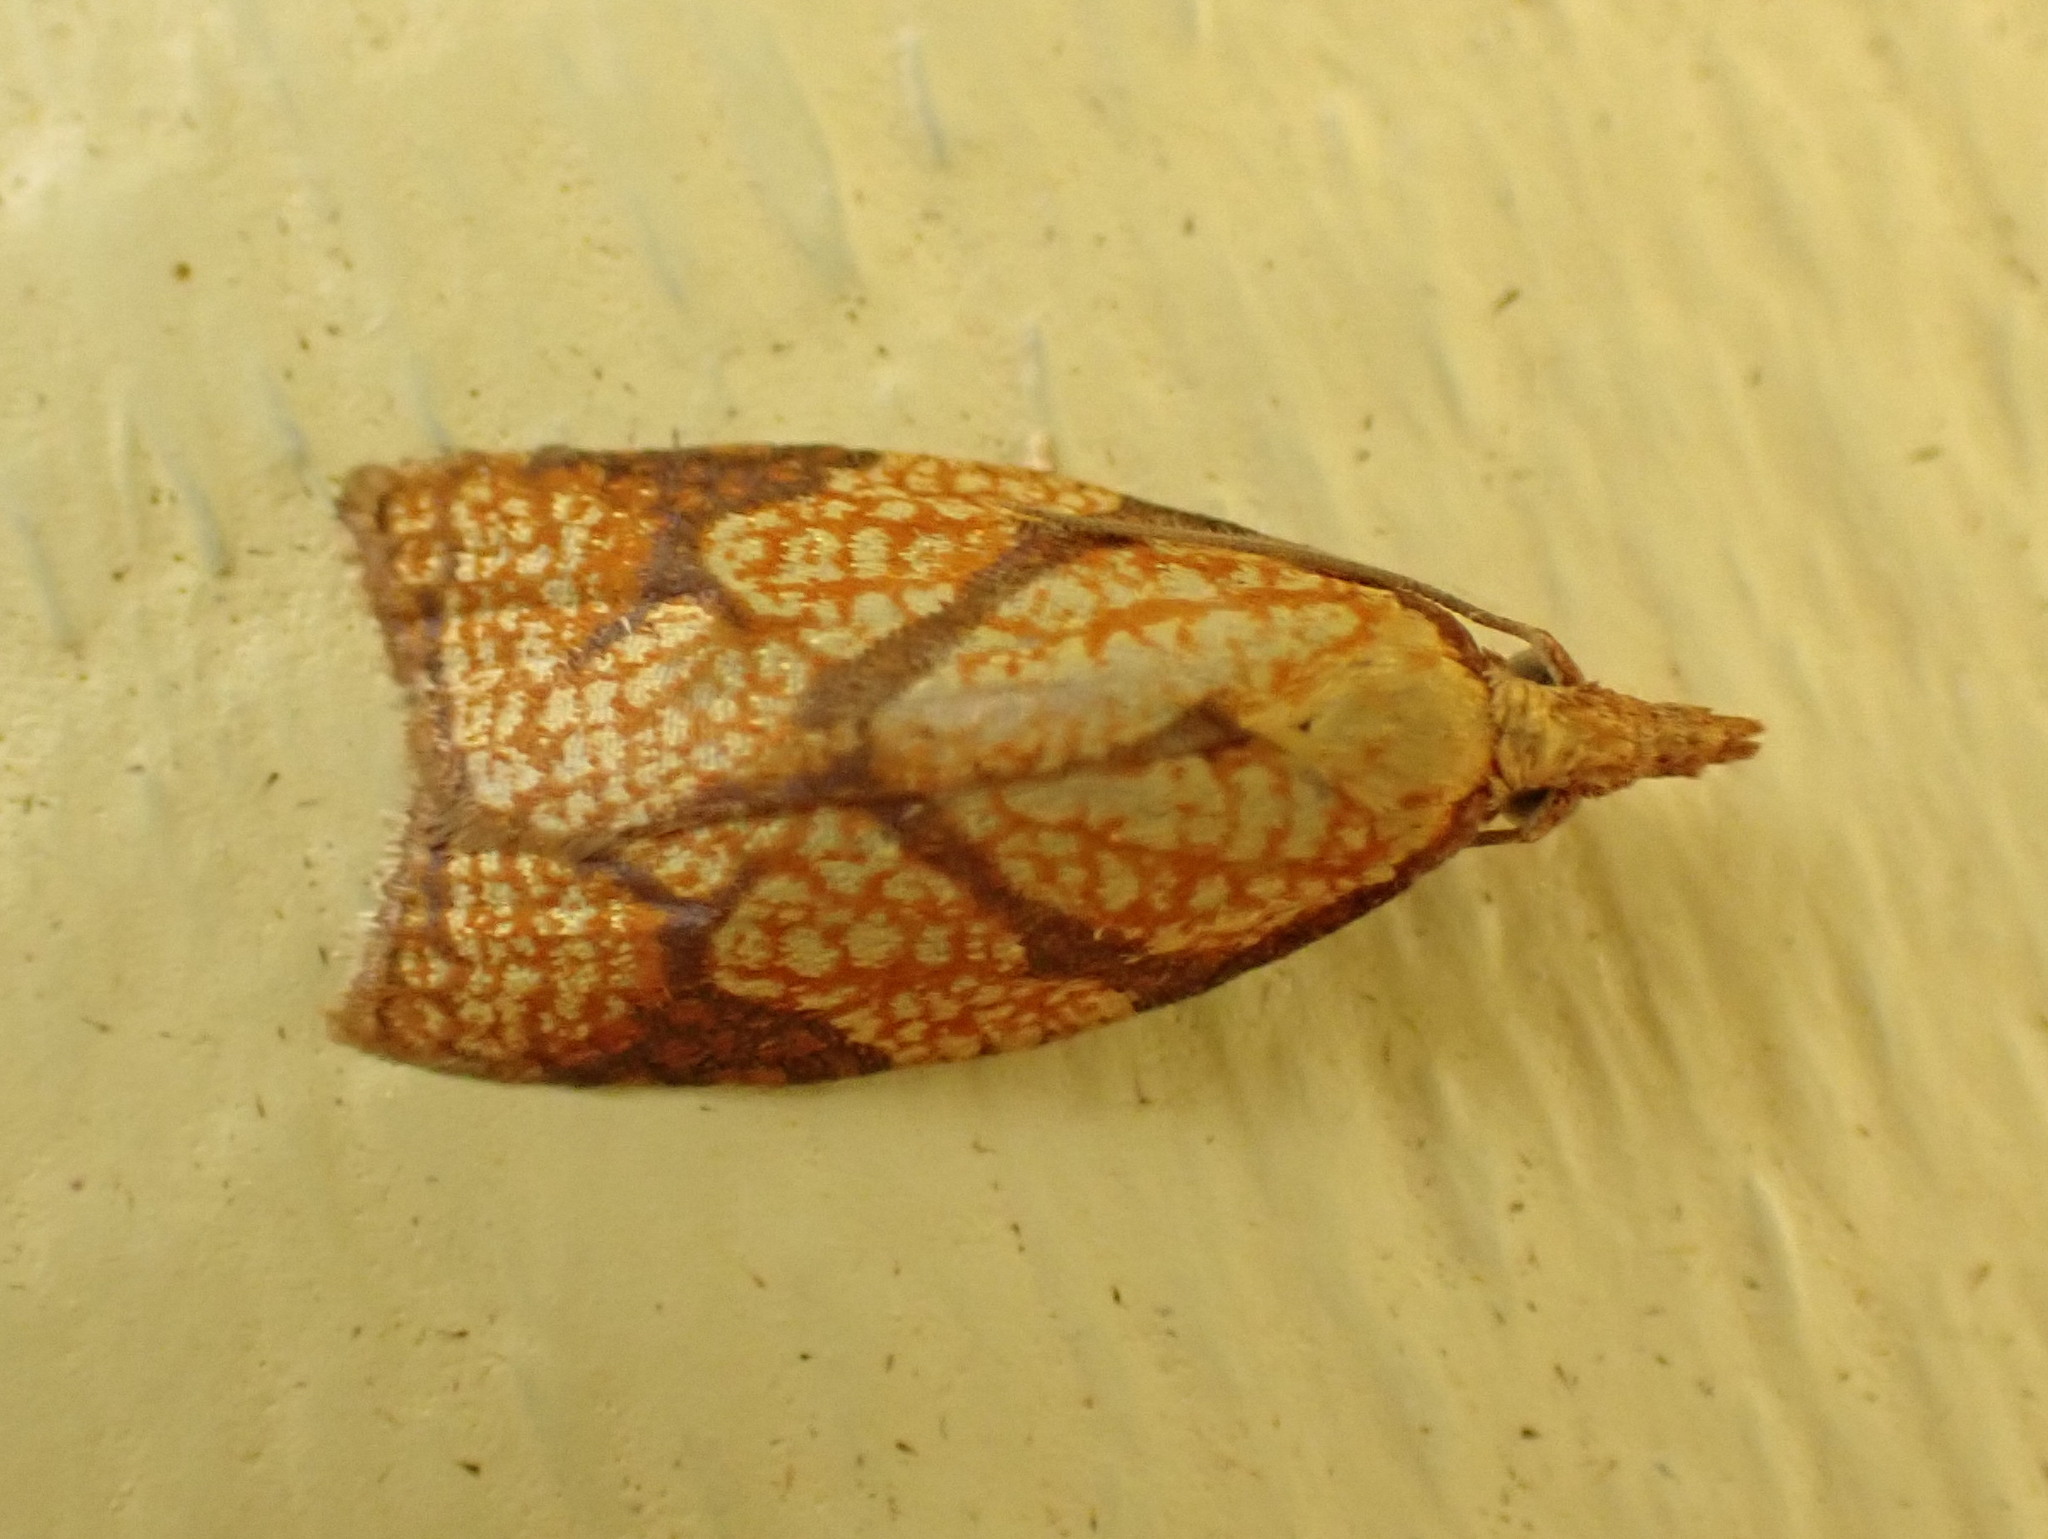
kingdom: Animalia
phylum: Arthropoda
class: Insecta
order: Lepidoptera
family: Tortricidae
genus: Cenopis
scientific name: Cenopis reticulatana
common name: Reticulated fruitworm moth
